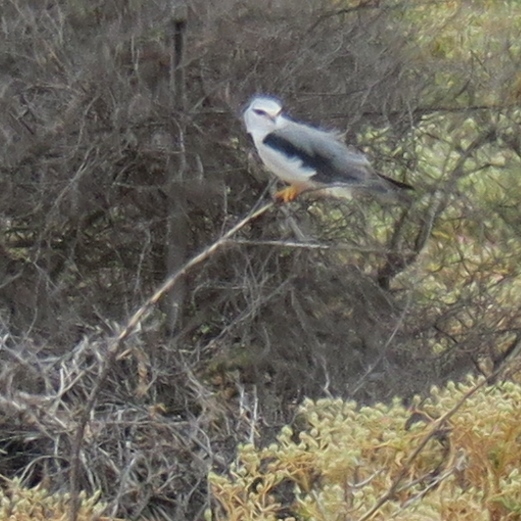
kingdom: Animalia
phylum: Chordata
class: Aves
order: Accipitriformes
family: Accipitridae
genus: Elanus
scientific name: Elanus caeruleus
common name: Black-winged kite
